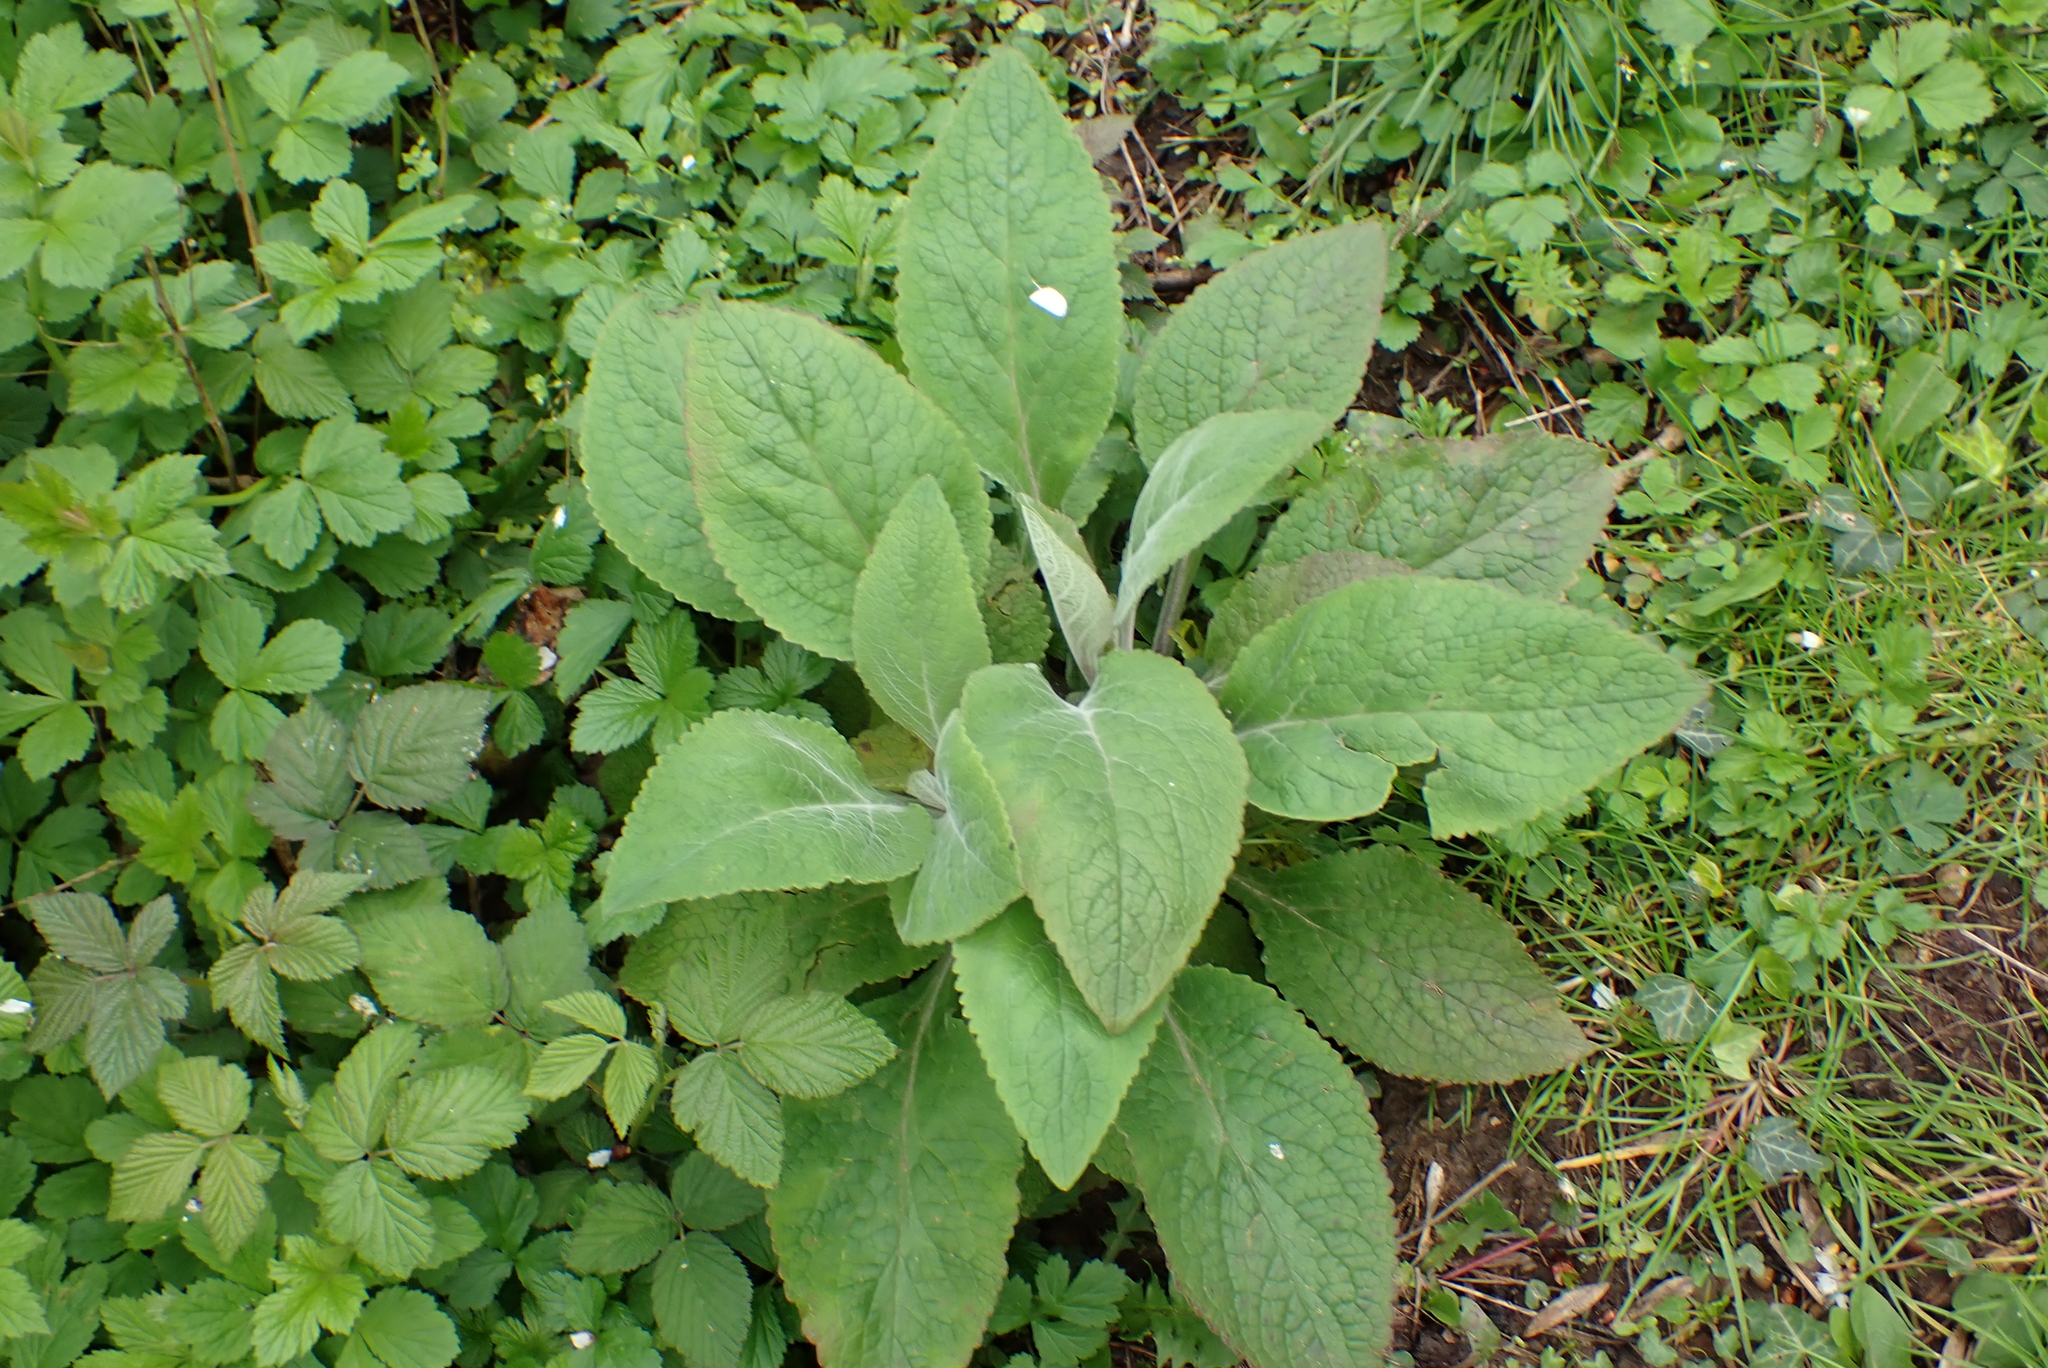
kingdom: Plantae
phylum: Tracheophyta
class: Magnoliopsida
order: Lamiales
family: Plantaginaceae
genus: Digitalis
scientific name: Digitalis purpurea
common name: Foxglove
